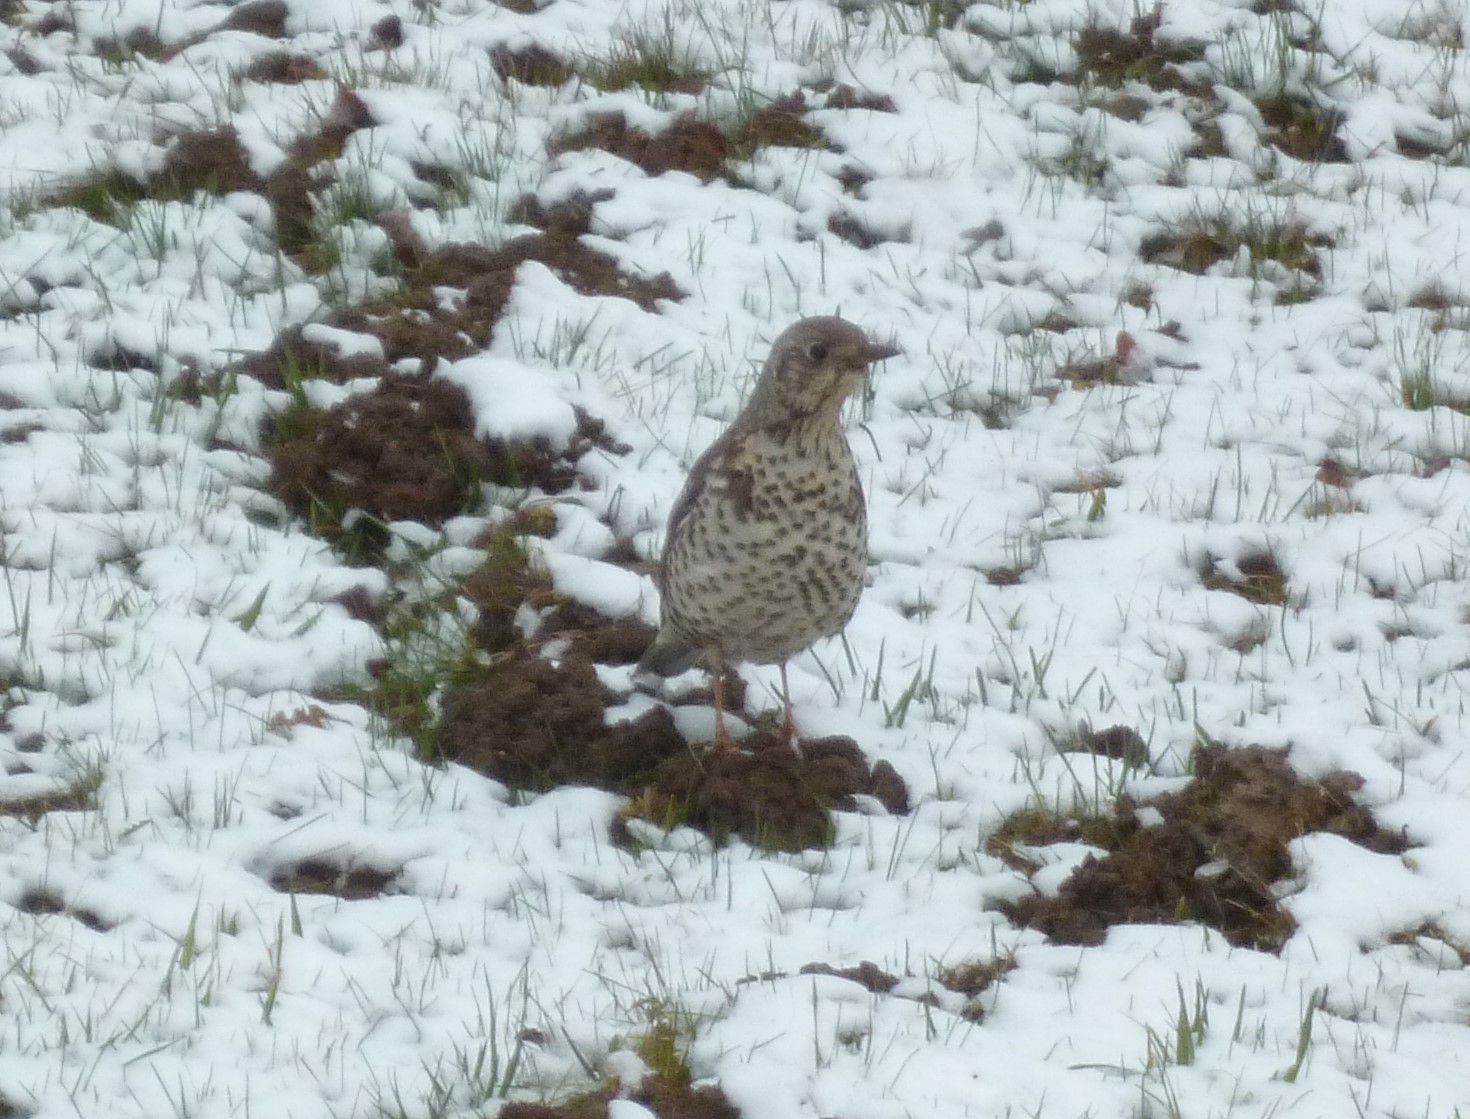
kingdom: Animalia
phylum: Chordata
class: Aves
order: Passeriformes
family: Turdidae
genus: Turdus
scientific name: Turdus viscivorus
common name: Mistle thrush
